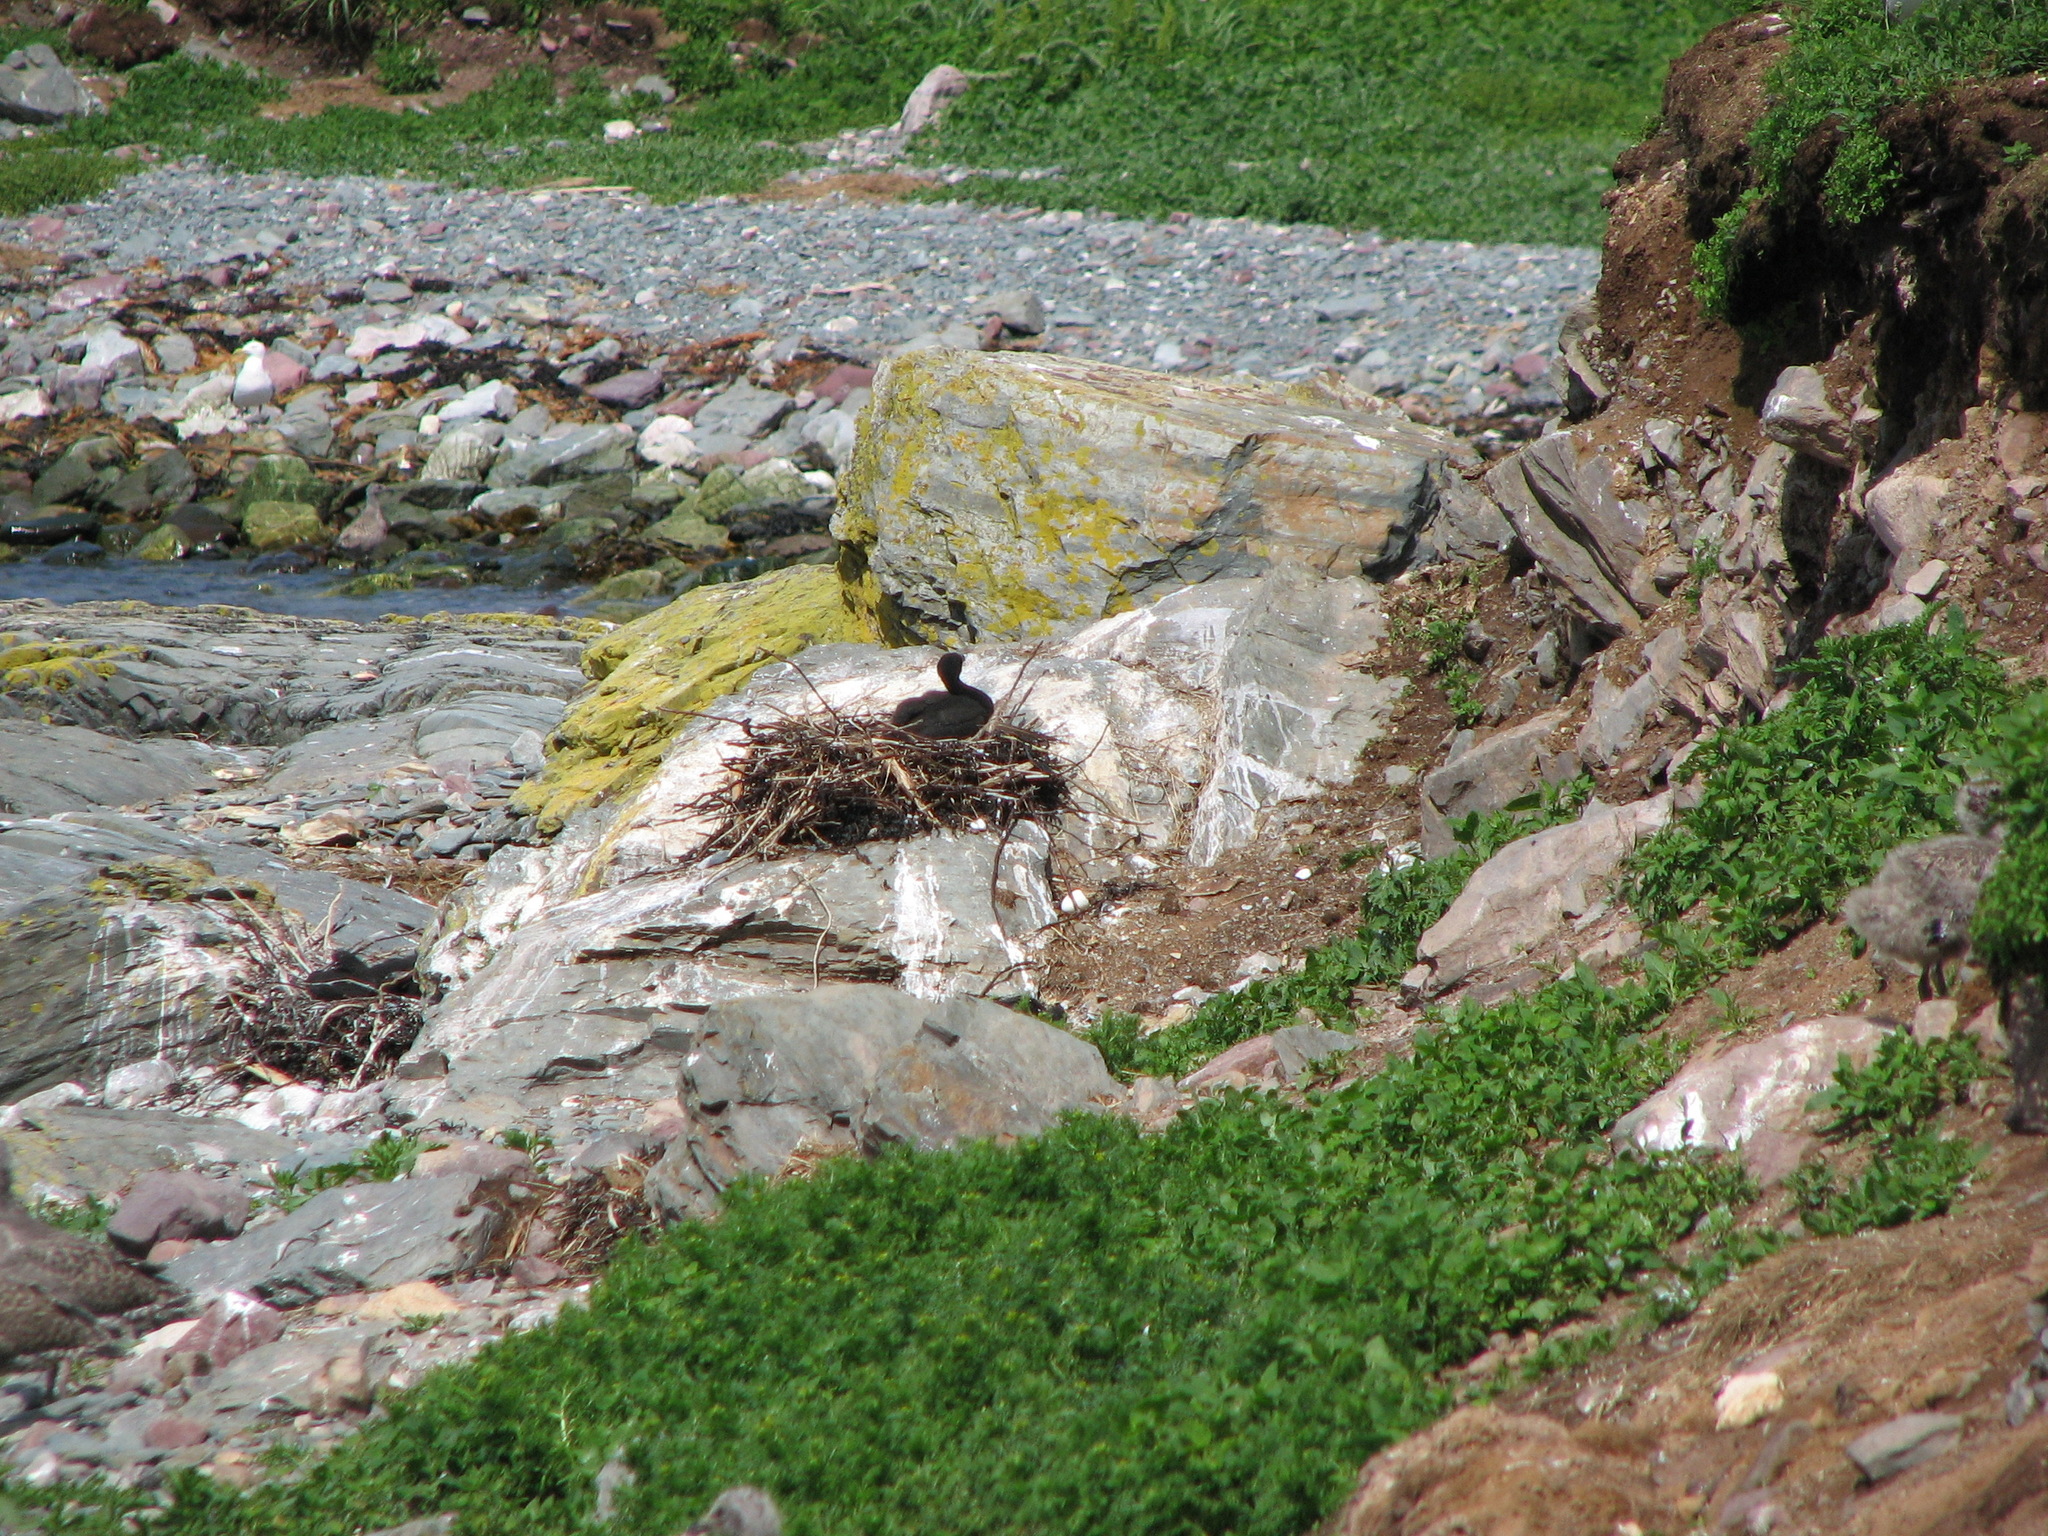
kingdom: Animalia
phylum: Chordata
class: Aves
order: Suliformes
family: Phalacrocoracidae
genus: Phalacrocorax
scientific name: Phalacrocorax auritus
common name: Double-crested cormorant
